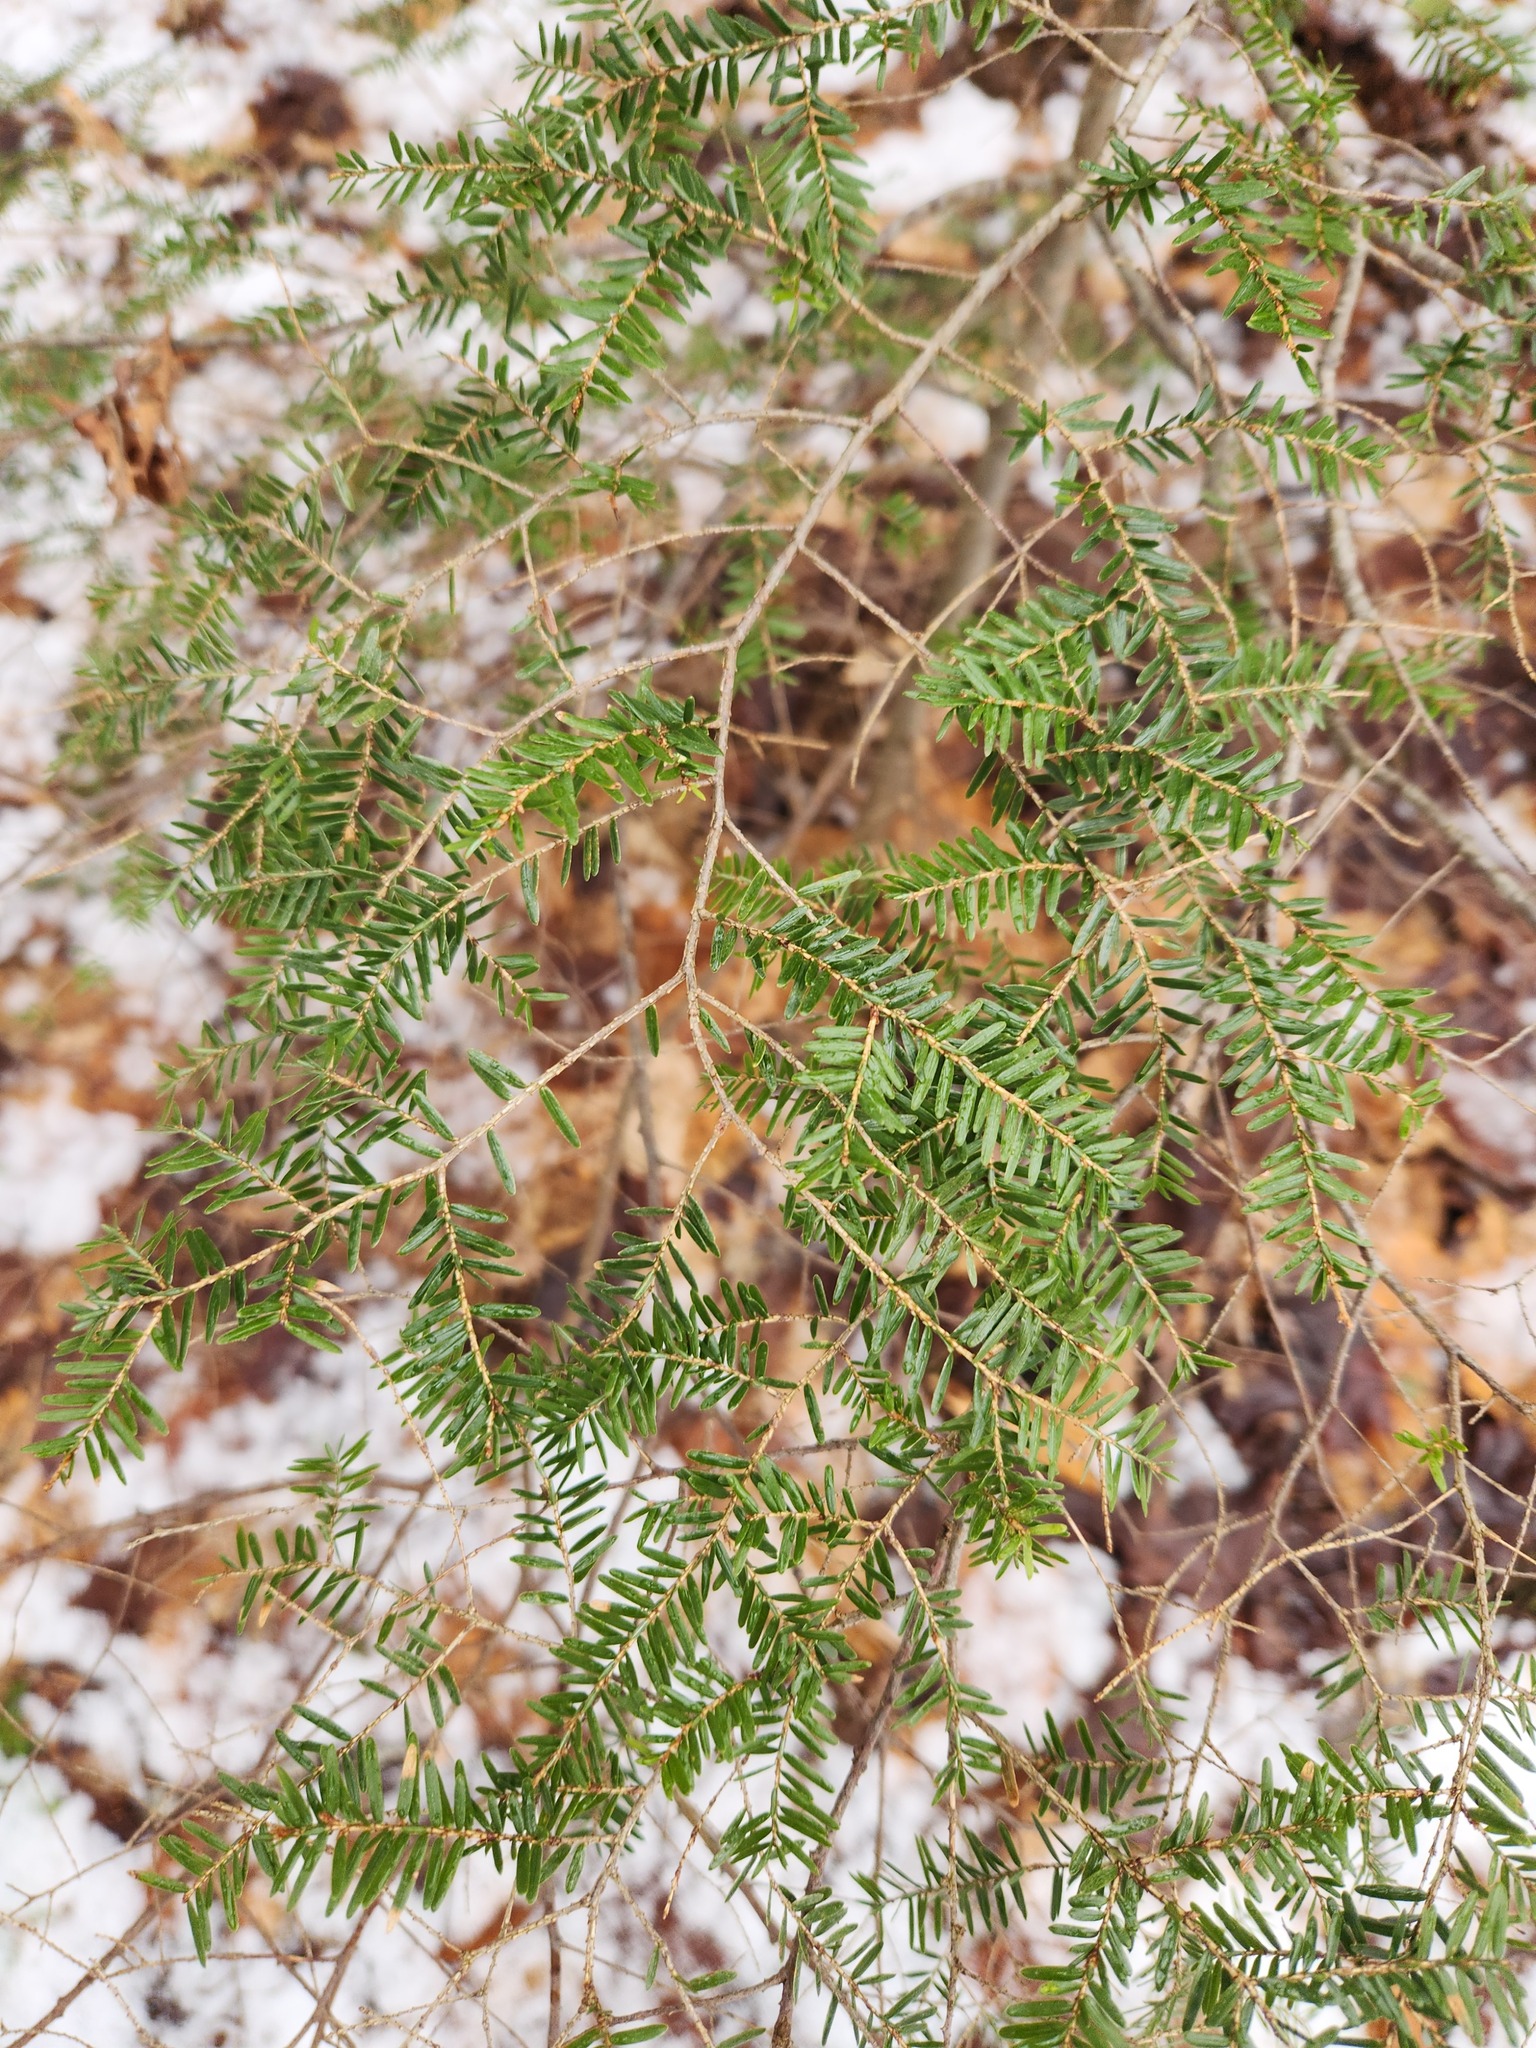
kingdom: Plantae
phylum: Tracheophyta
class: Pinopsida
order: Pinales
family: Pinaceae
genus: Tsuga
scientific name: Tsuga canadensis
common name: Eastern hemlock
